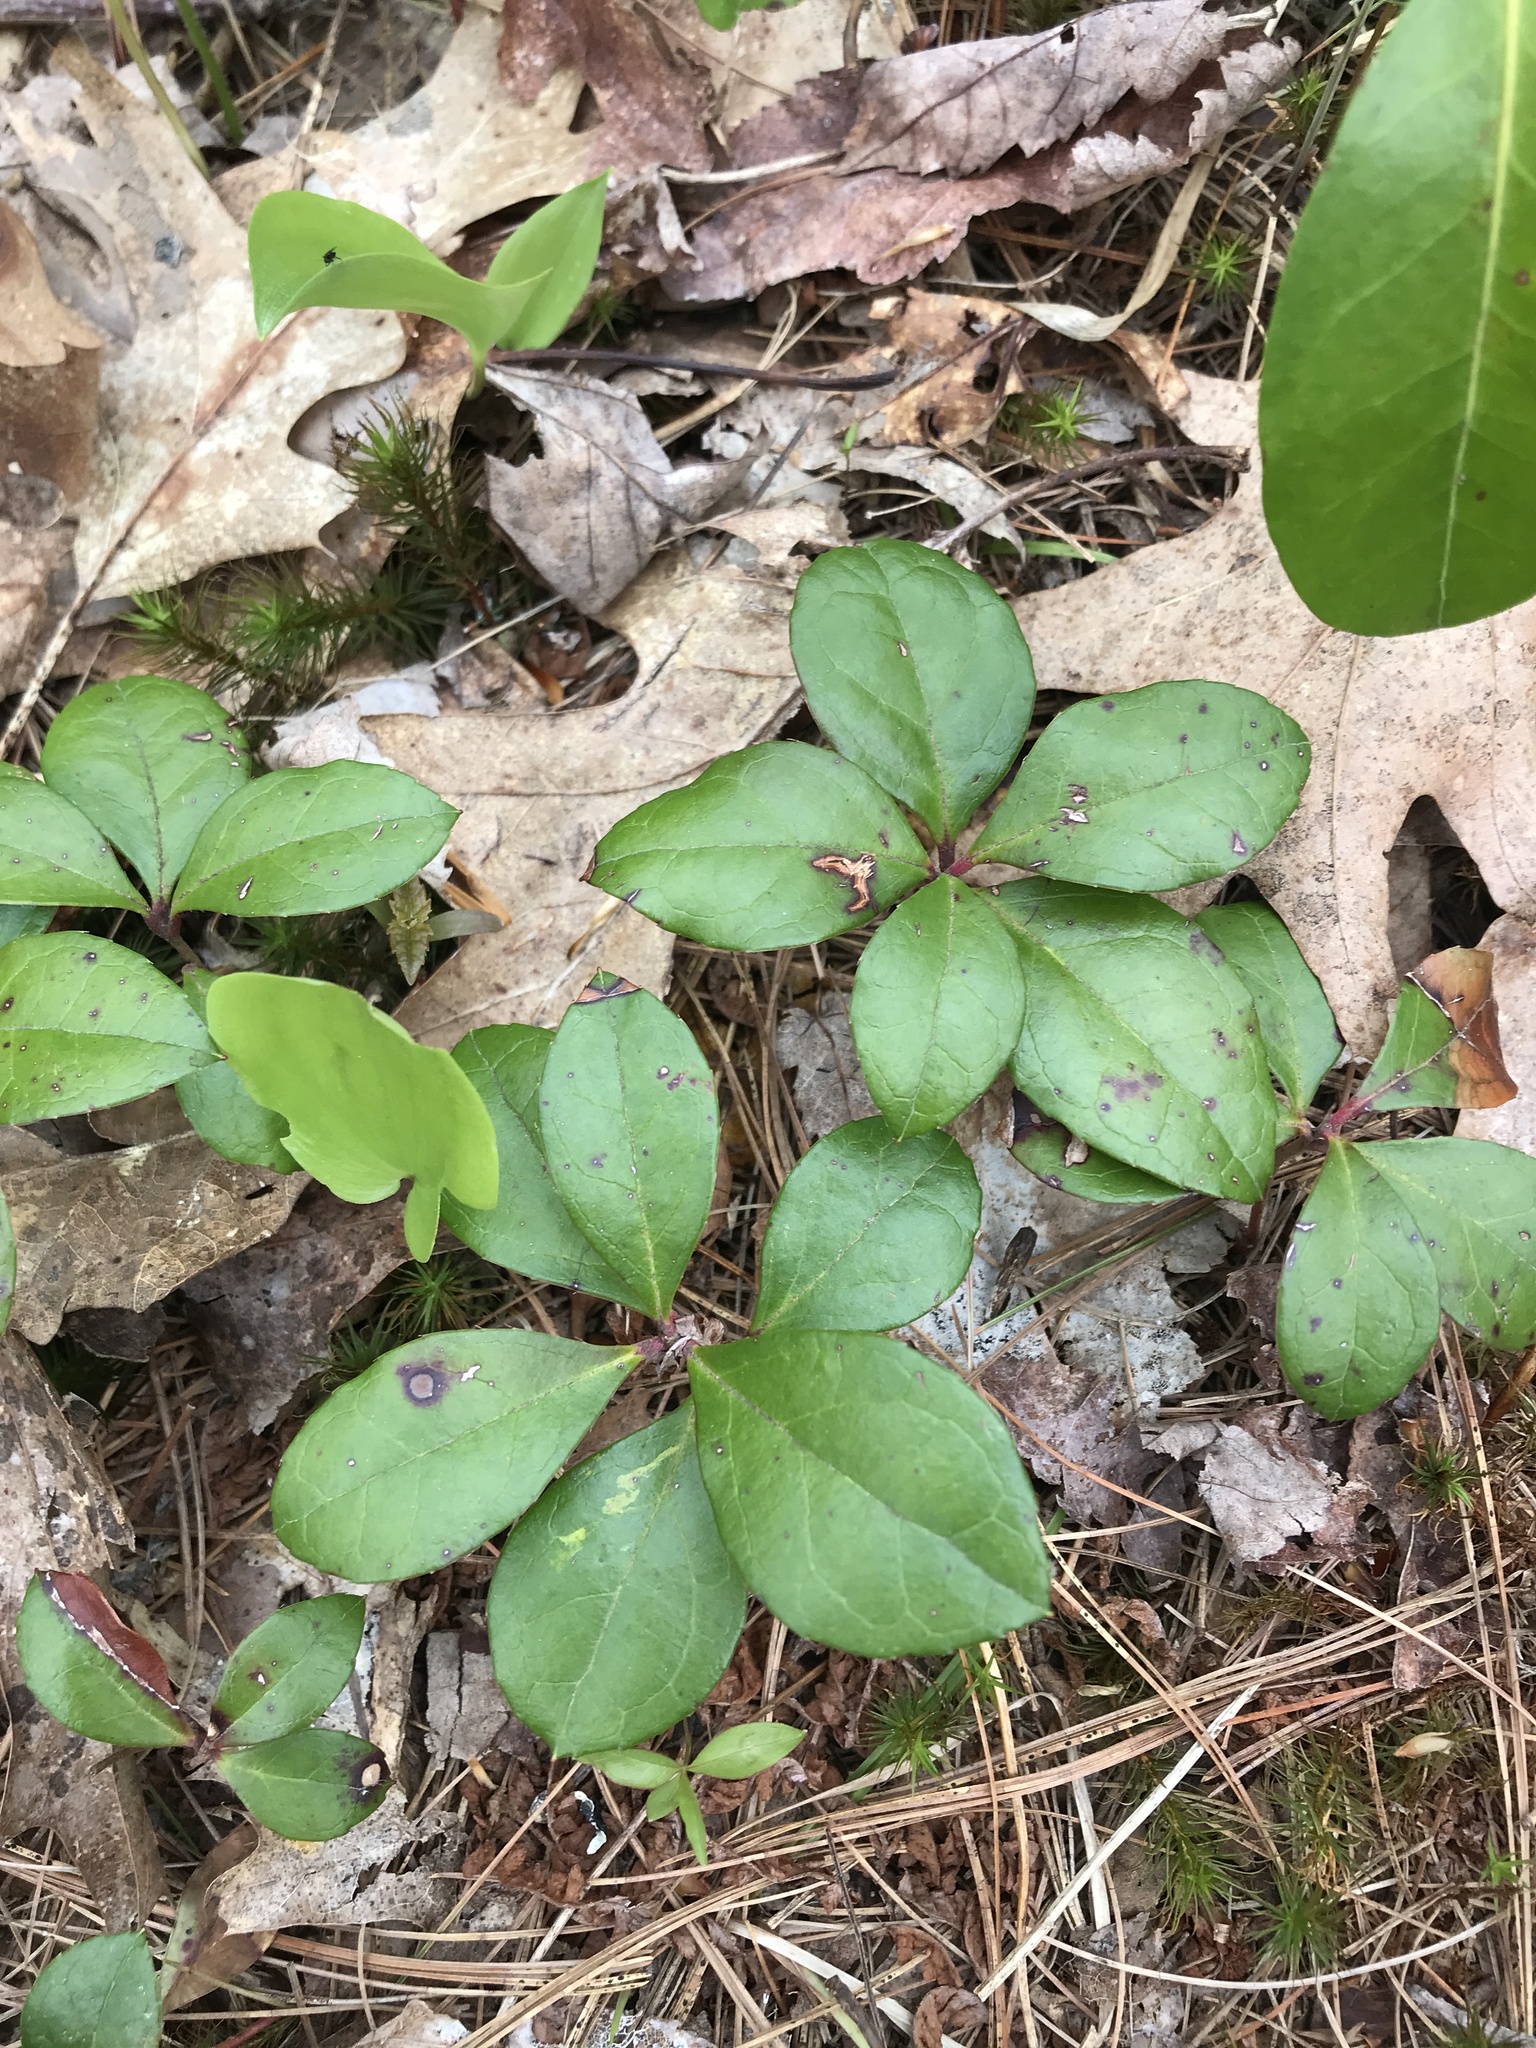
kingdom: Plantae
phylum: Tracheophyta
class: Magnoliopsida
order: Ericales
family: Ericaceae
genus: Gaultheria
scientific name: Gaultheria procumbens
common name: Checkerberry
